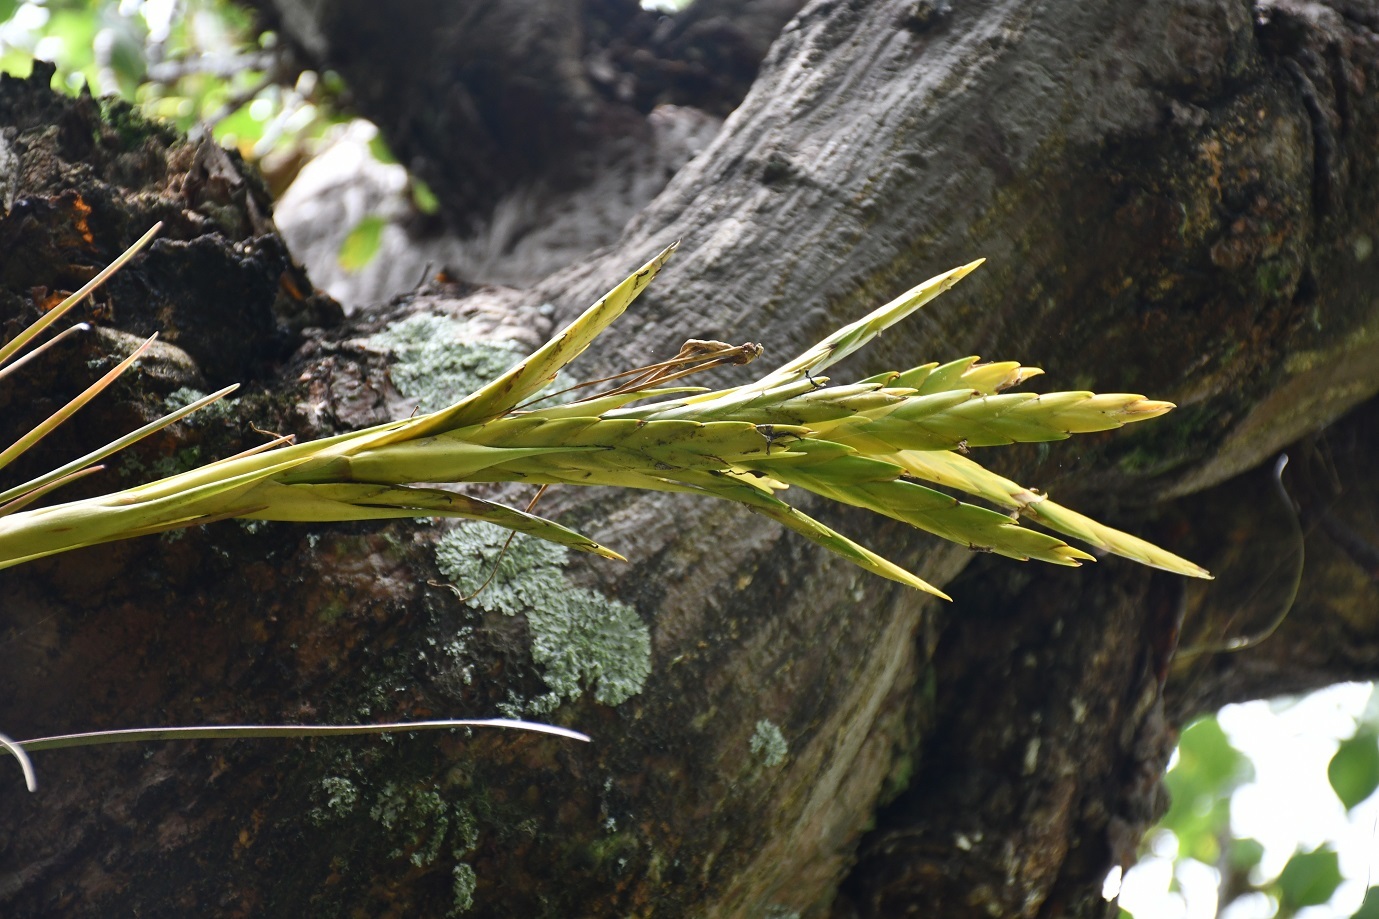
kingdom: Plantae
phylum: Tracheophyta
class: Liliopsida
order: Poales
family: Bromeliaceae
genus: Tillandsia
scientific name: Tillandsia rodrigueziana
